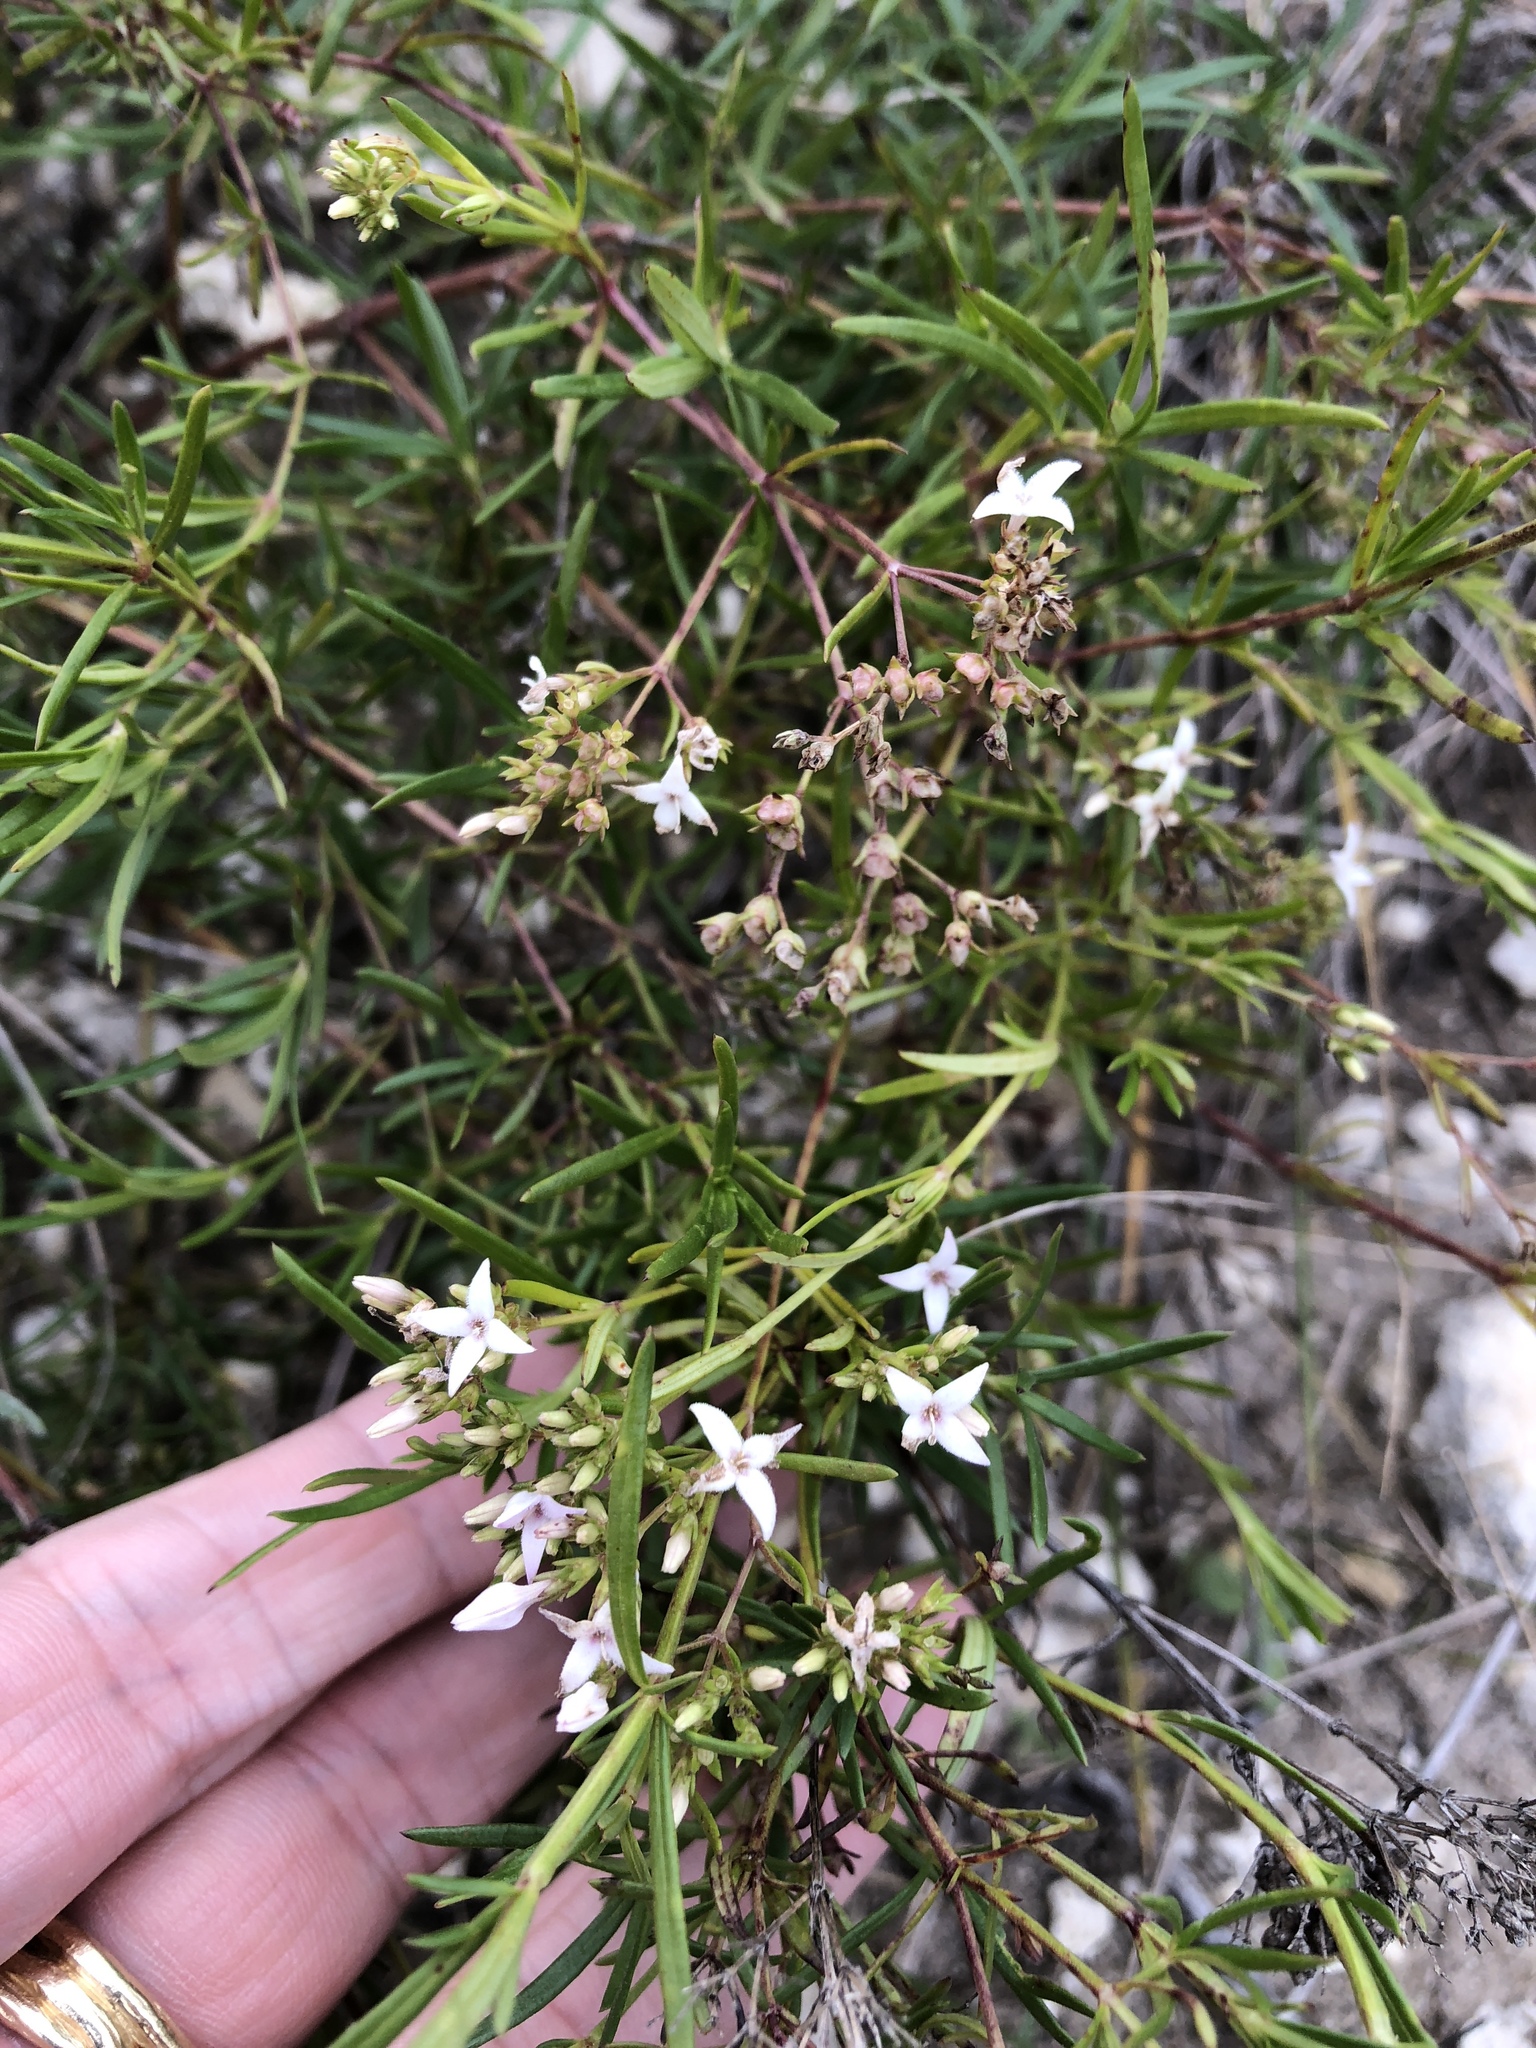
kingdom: Plantae
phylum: Tracheophyta
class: Magnoliopsida
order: Gentianales
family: Rubiaceae
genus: Stenaria
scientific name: Stenaria nigricans
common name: Diamondflowers
